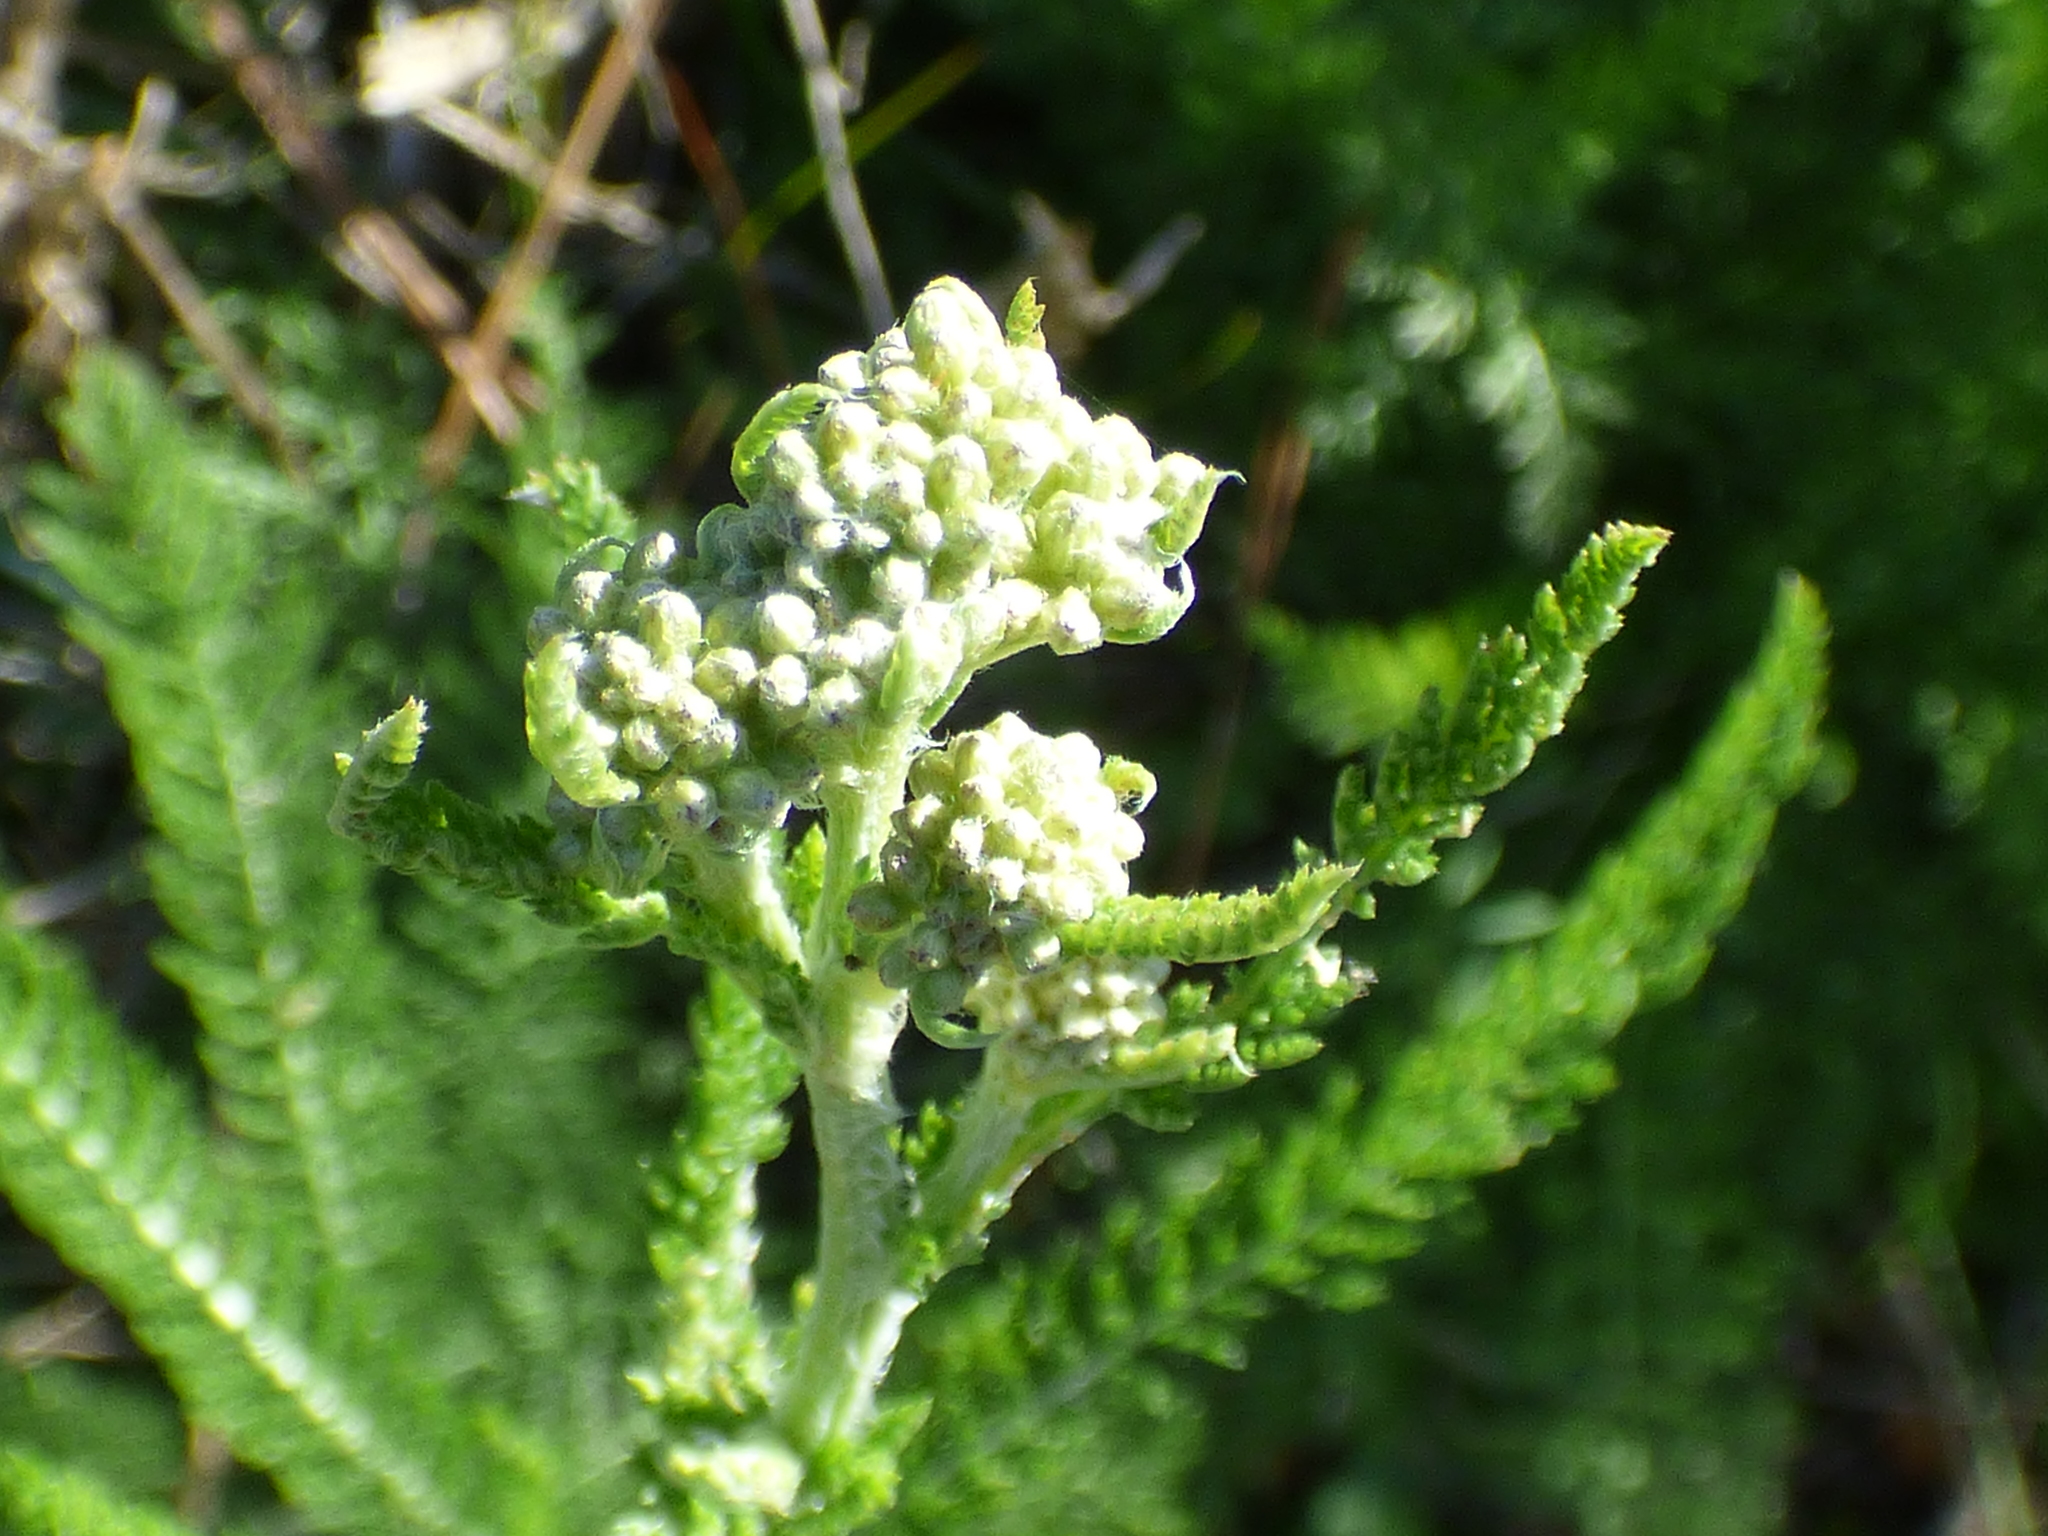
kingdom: Plantae
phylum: Tracheophyta
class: Magnoliopsida
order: Asterales
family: Asteraceae
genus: Achillea
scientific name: Achillea millefolium
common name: Yarrow
